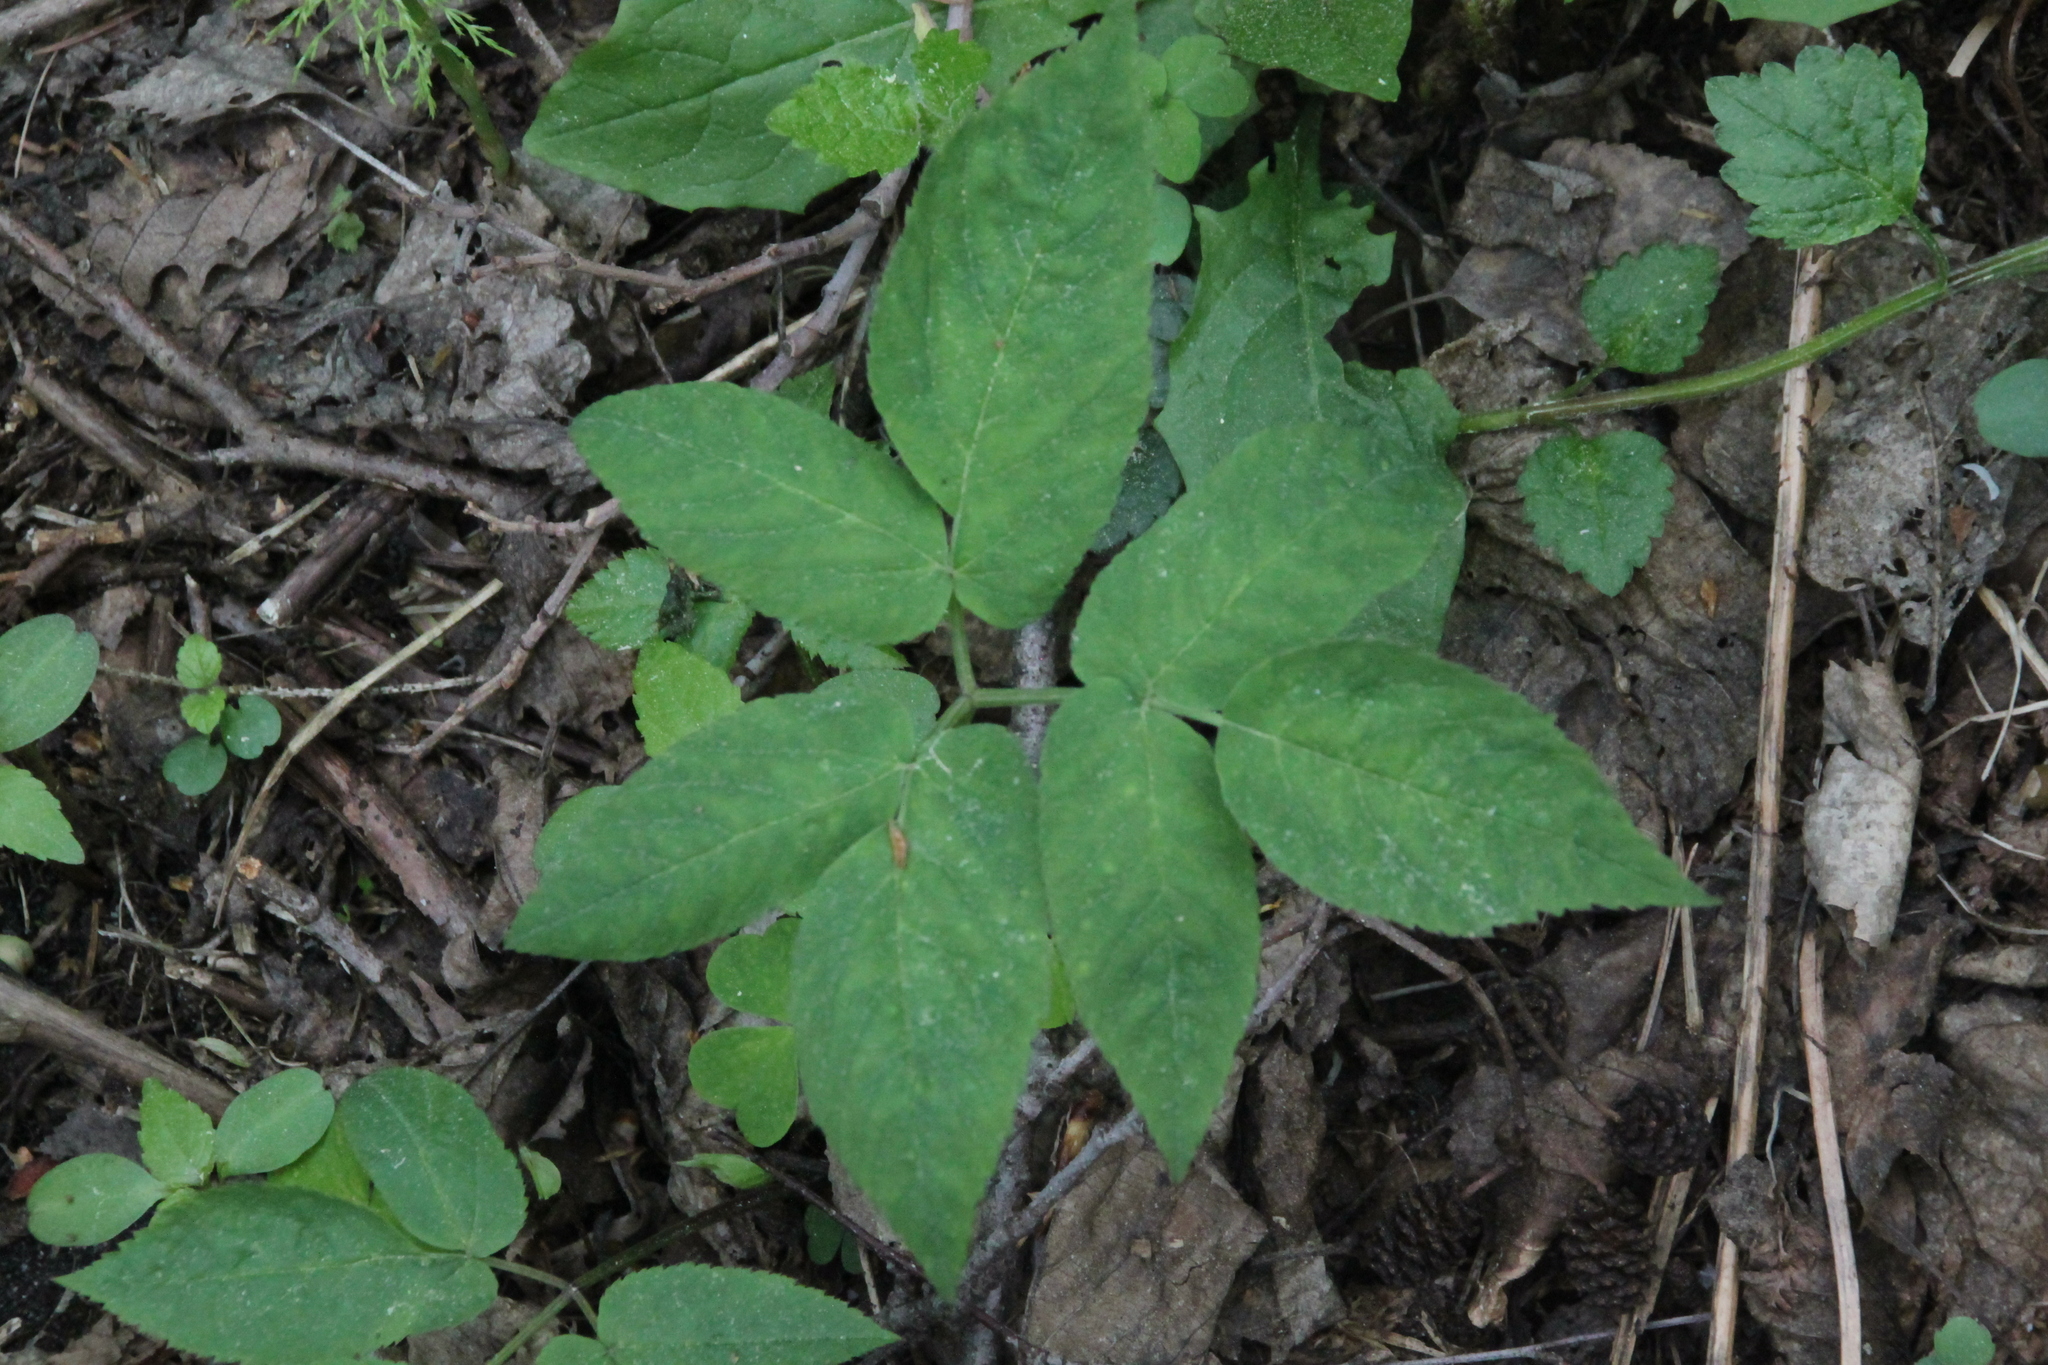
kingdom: Plantae
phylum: Tracheophyta
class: Magnoliopsida
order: Apiales
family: Apiaceae
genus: Aegopodium
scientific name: Aegopodium podagraria
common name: Ground-elder
